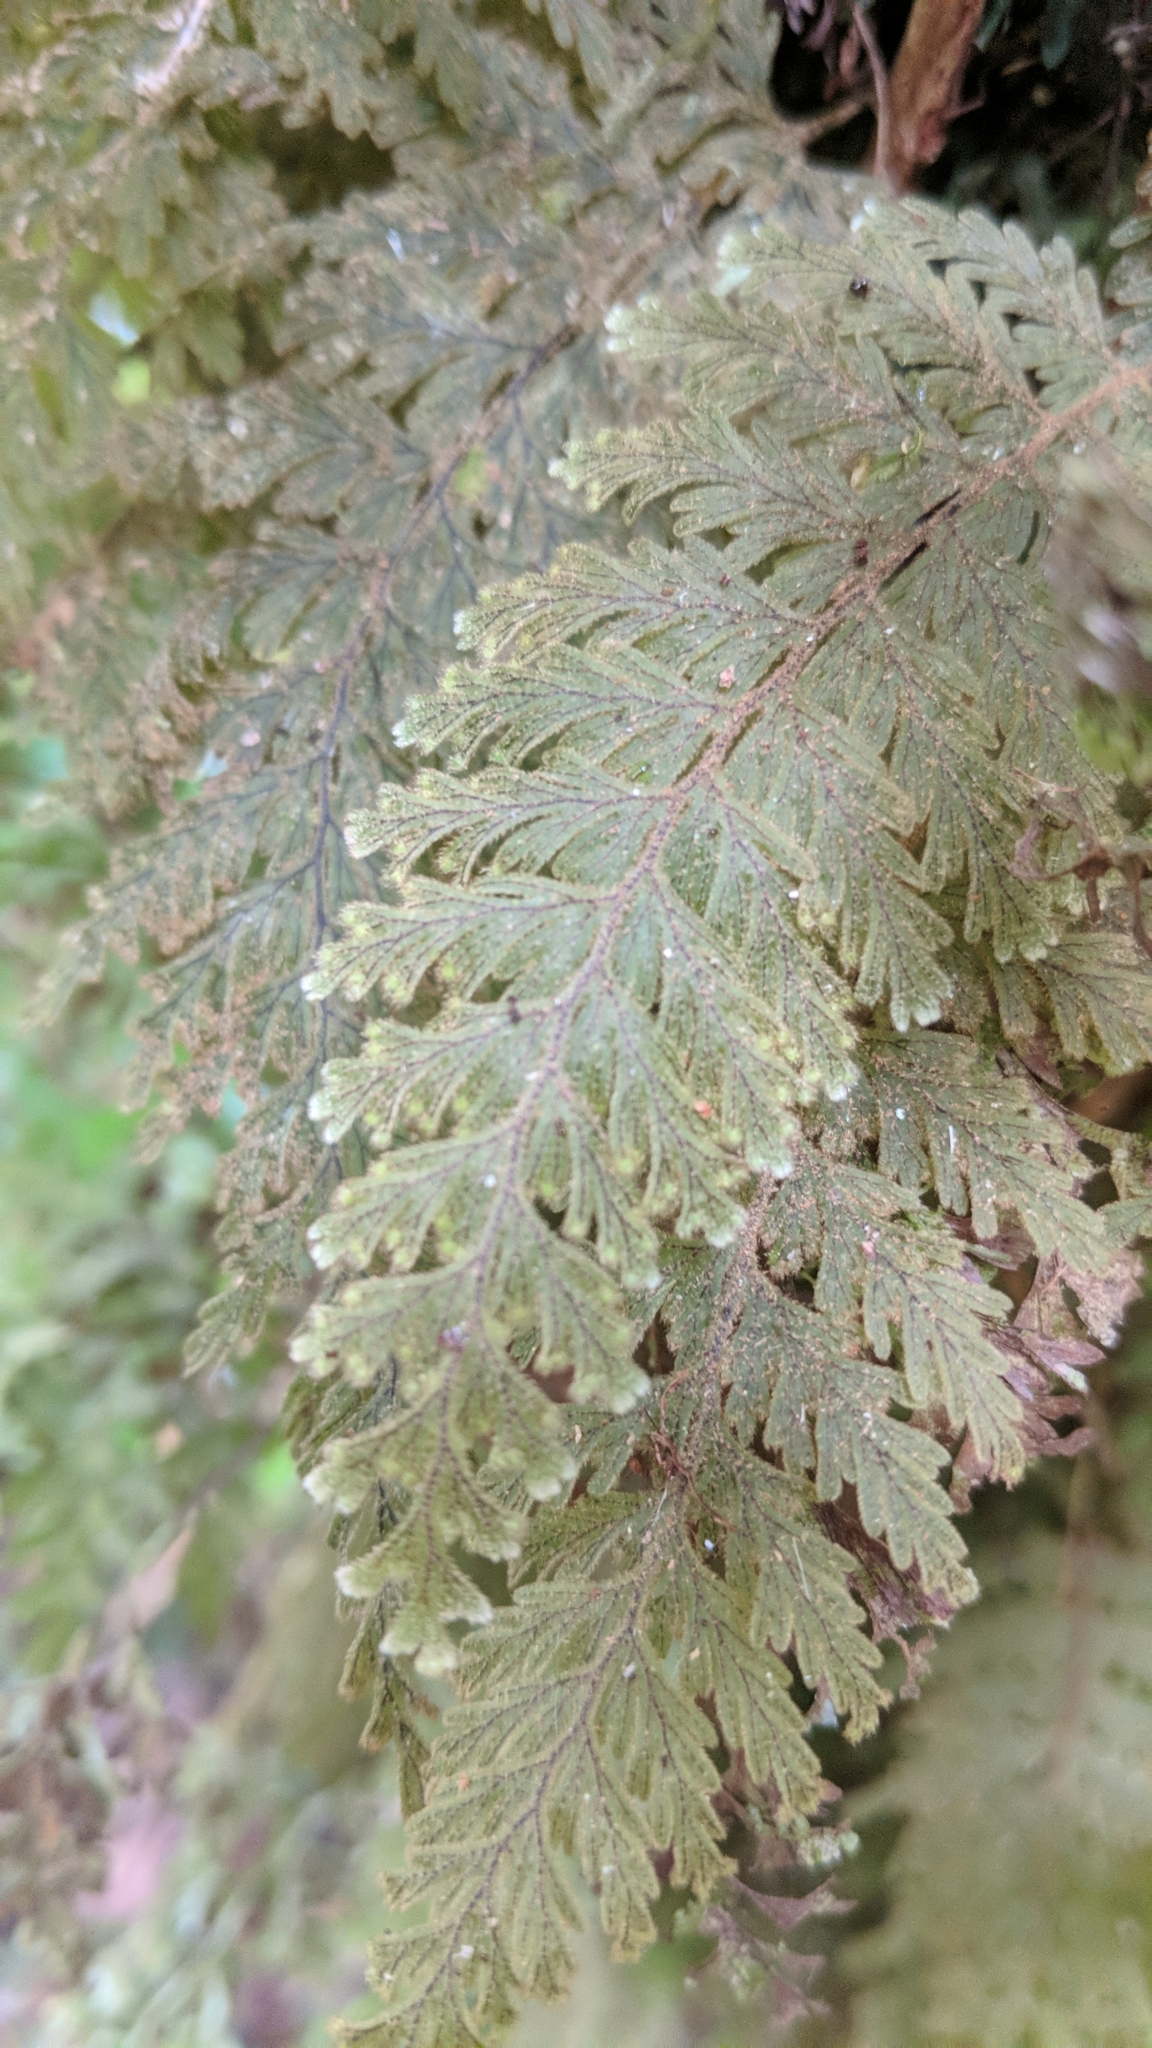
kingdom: Plantae
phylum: Tracheophyta
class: Polypodiopsida
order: Hymenophyllales
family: Hymenophyllaceae
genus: Hymenophyllum
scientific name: Hymenophyllum frankliniae
